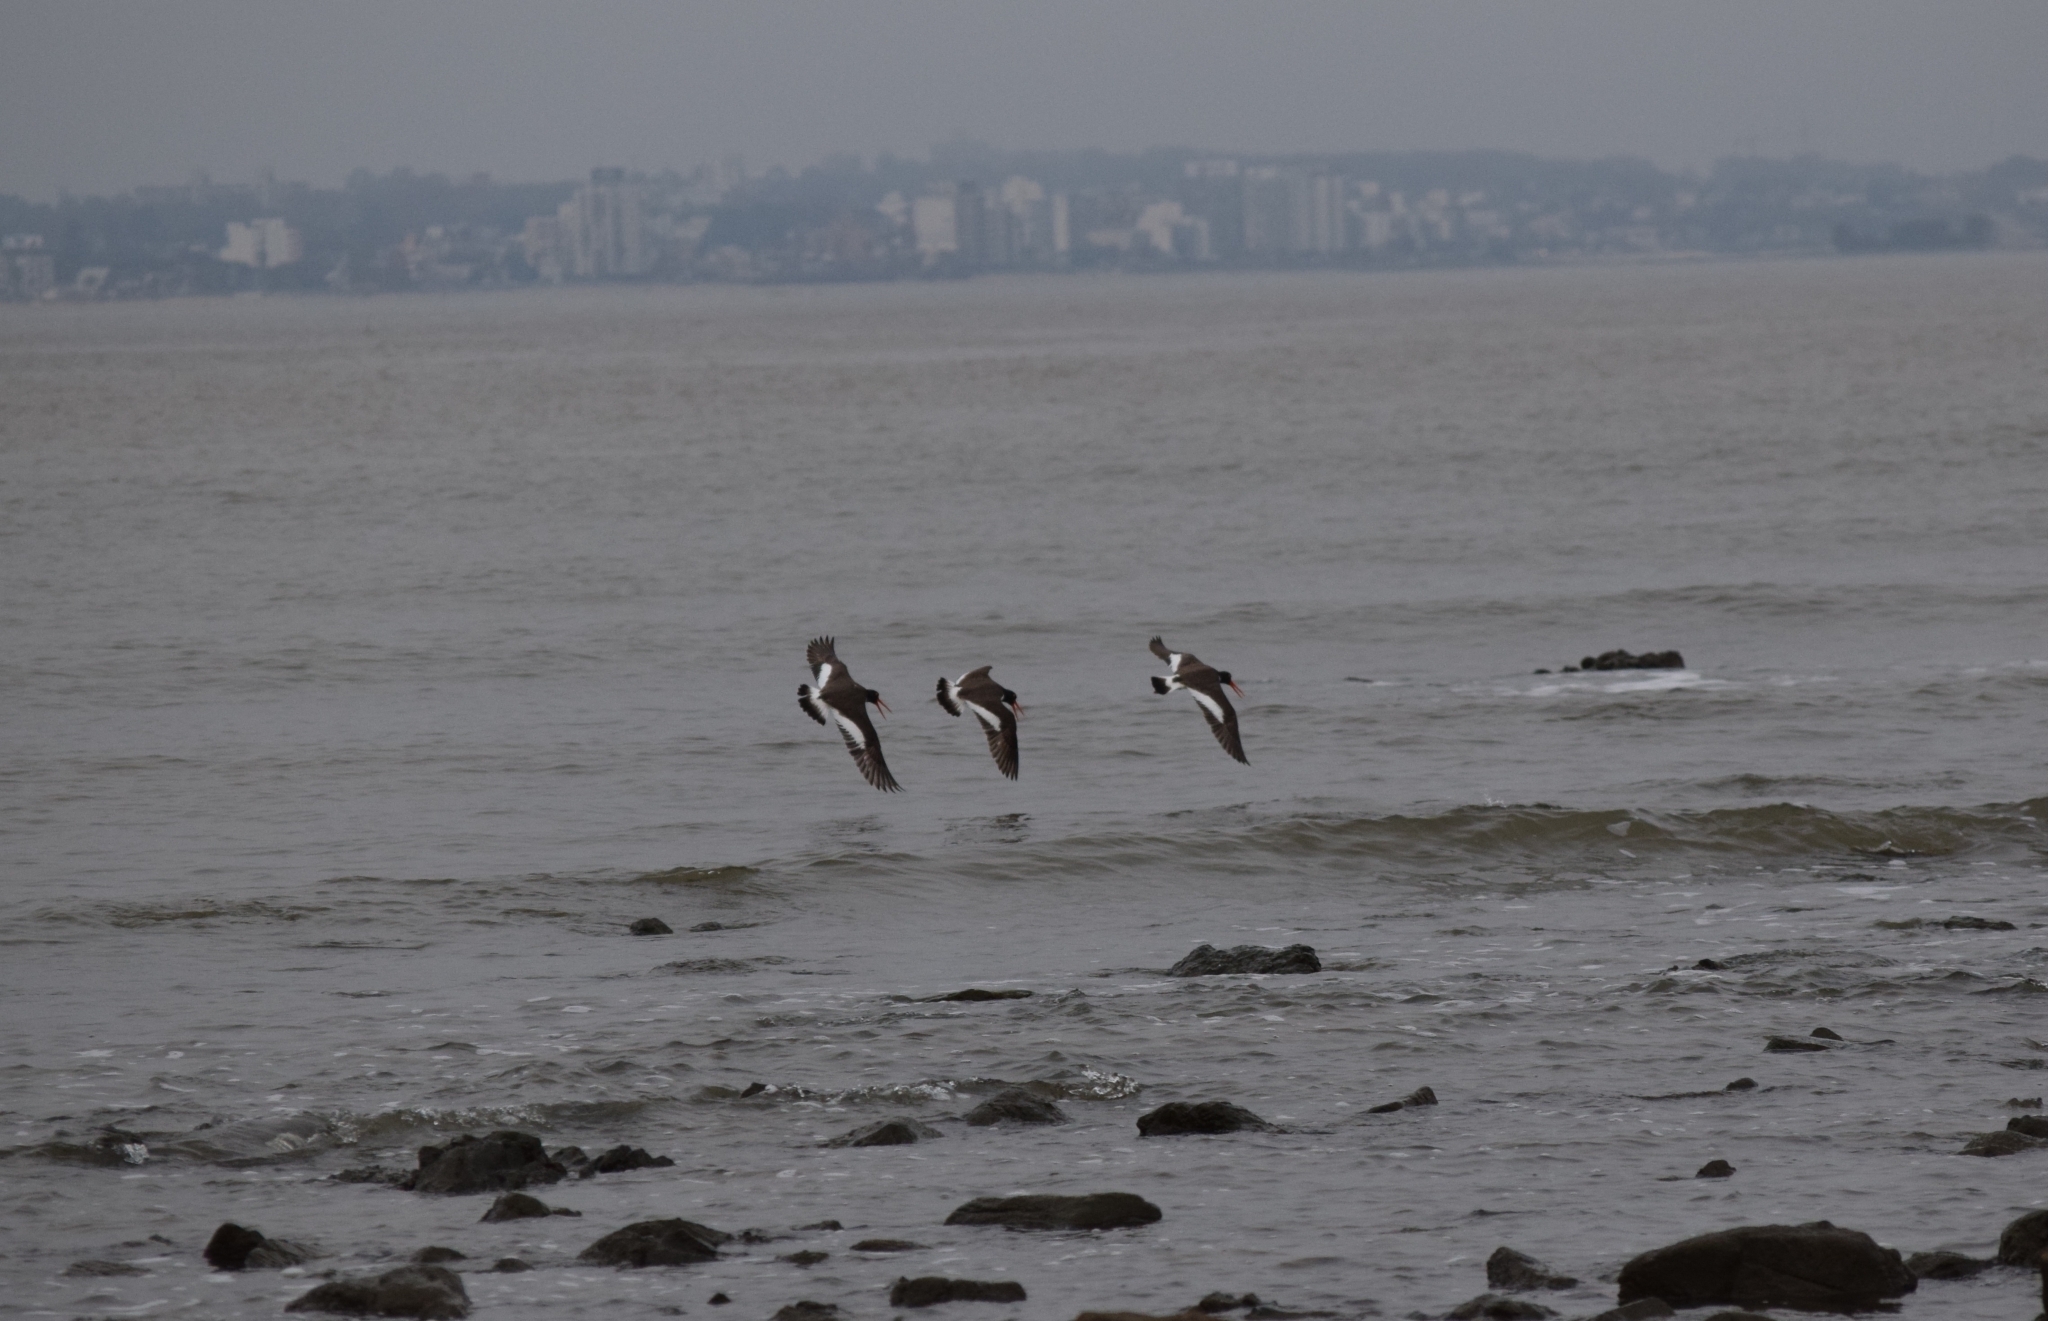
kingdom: Animalia
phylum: Chordata
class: Aves
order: Charadriiformes
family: Haematopodidae
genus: Haematopus
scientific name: Haematopus palliatus
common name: American oystercatcher
